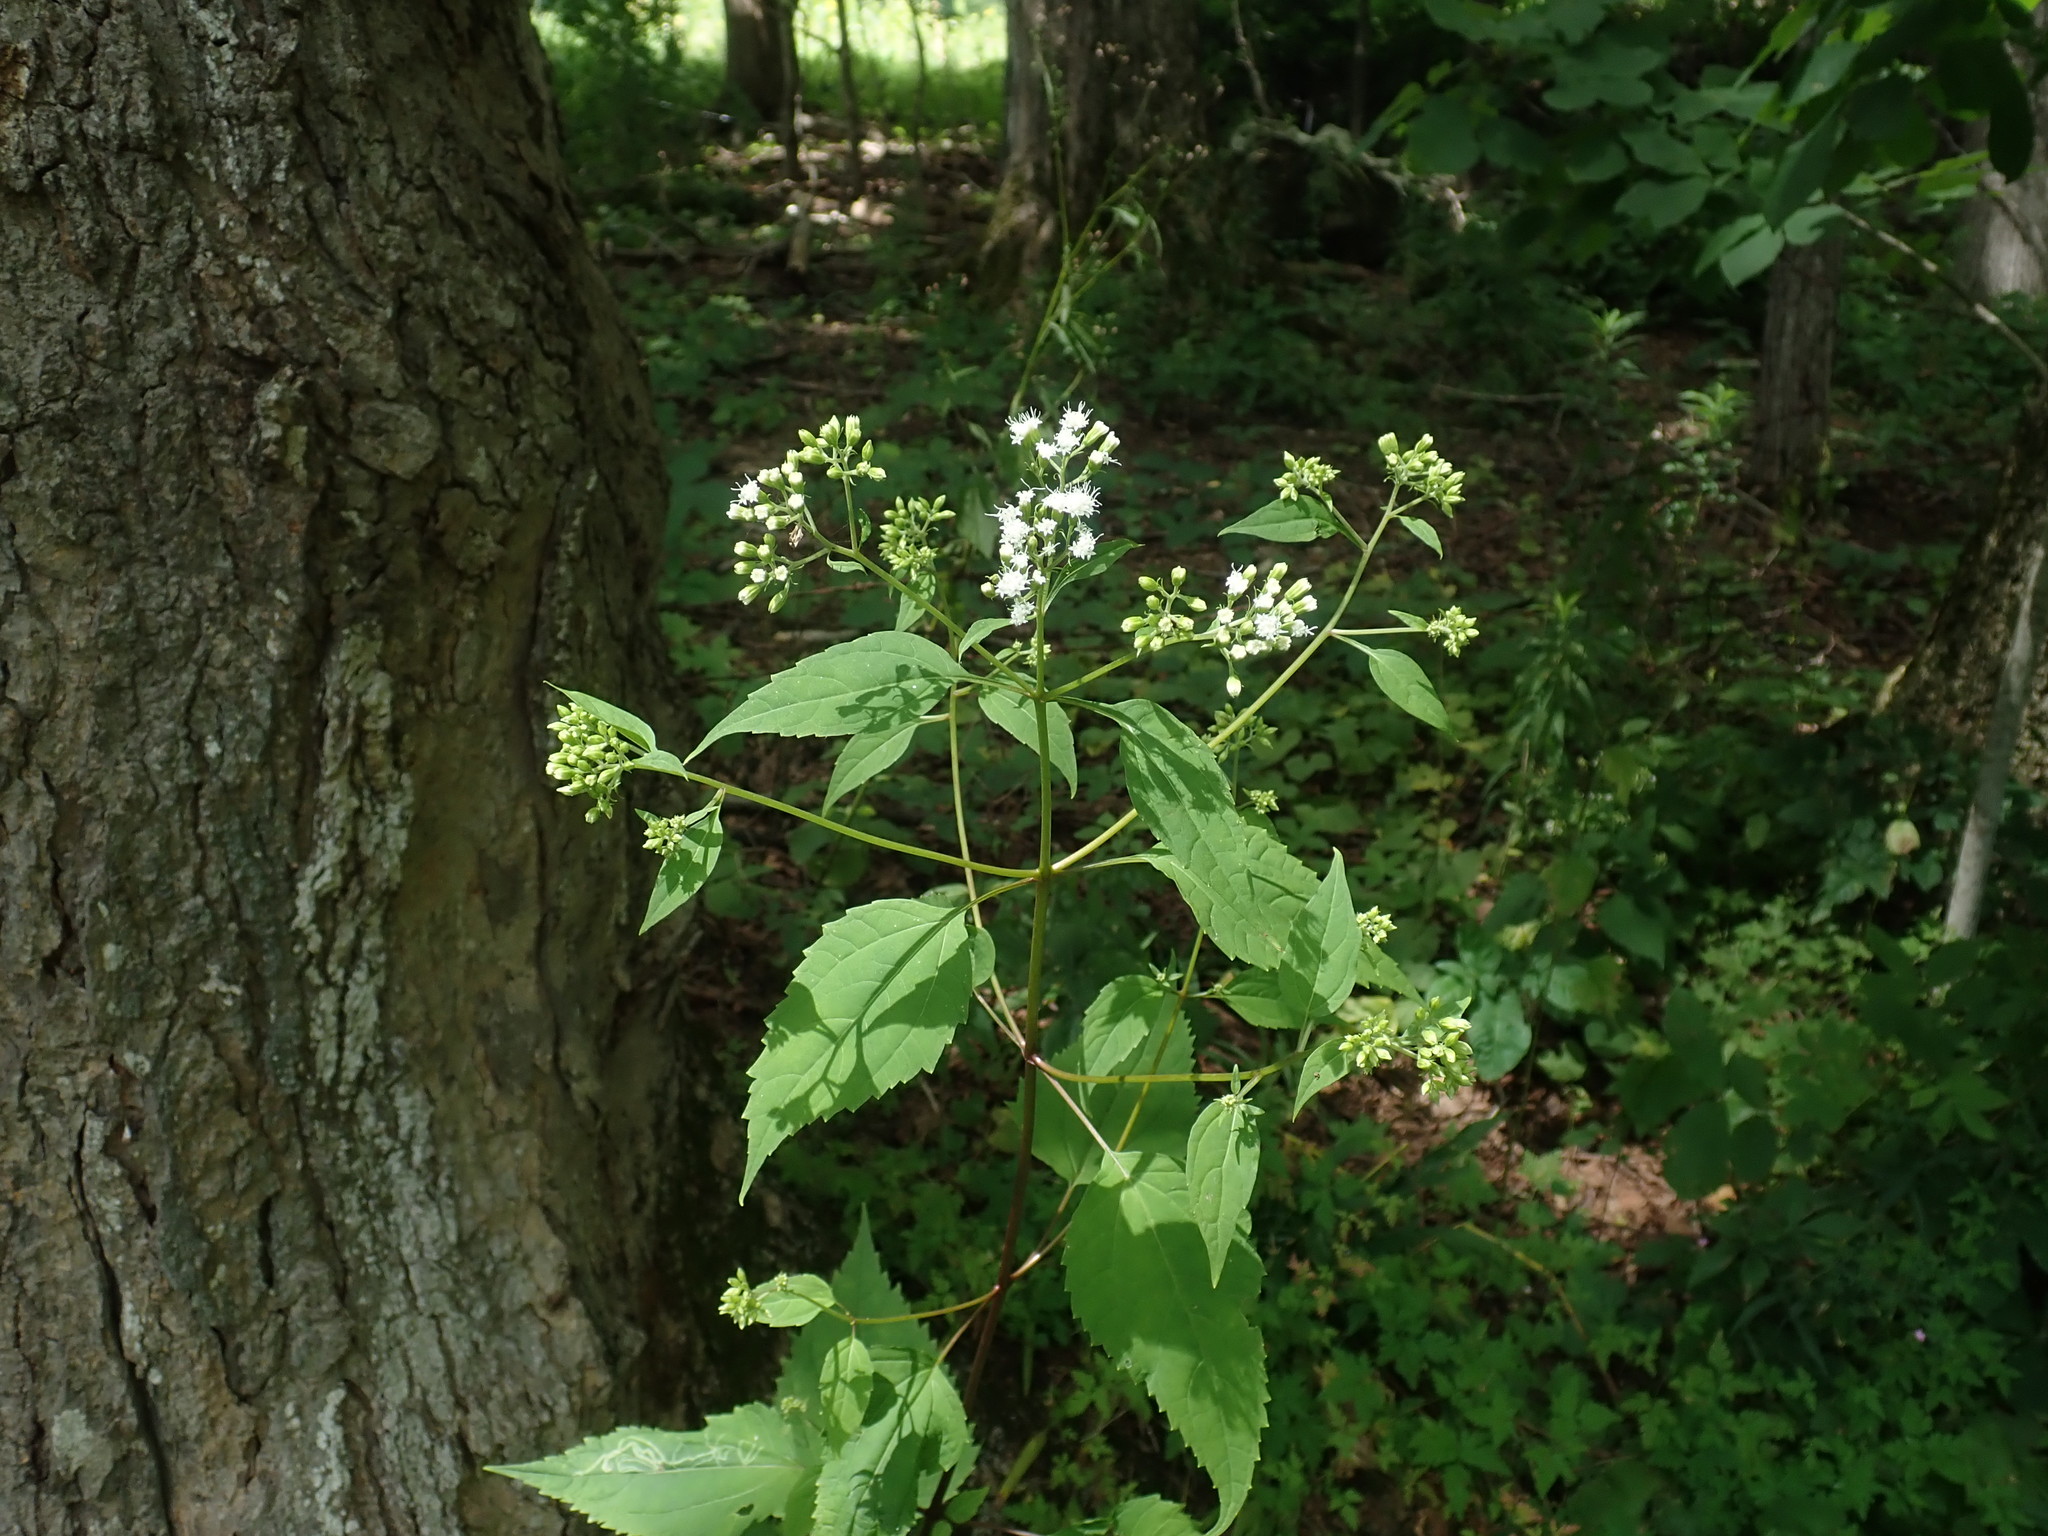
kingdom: Plantae
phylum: Tracheophyta
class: Magnoliopsida
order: Asterales
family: Asteraceae
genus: Ageratina
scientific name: Ageratina altissima
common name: White snakeroot
